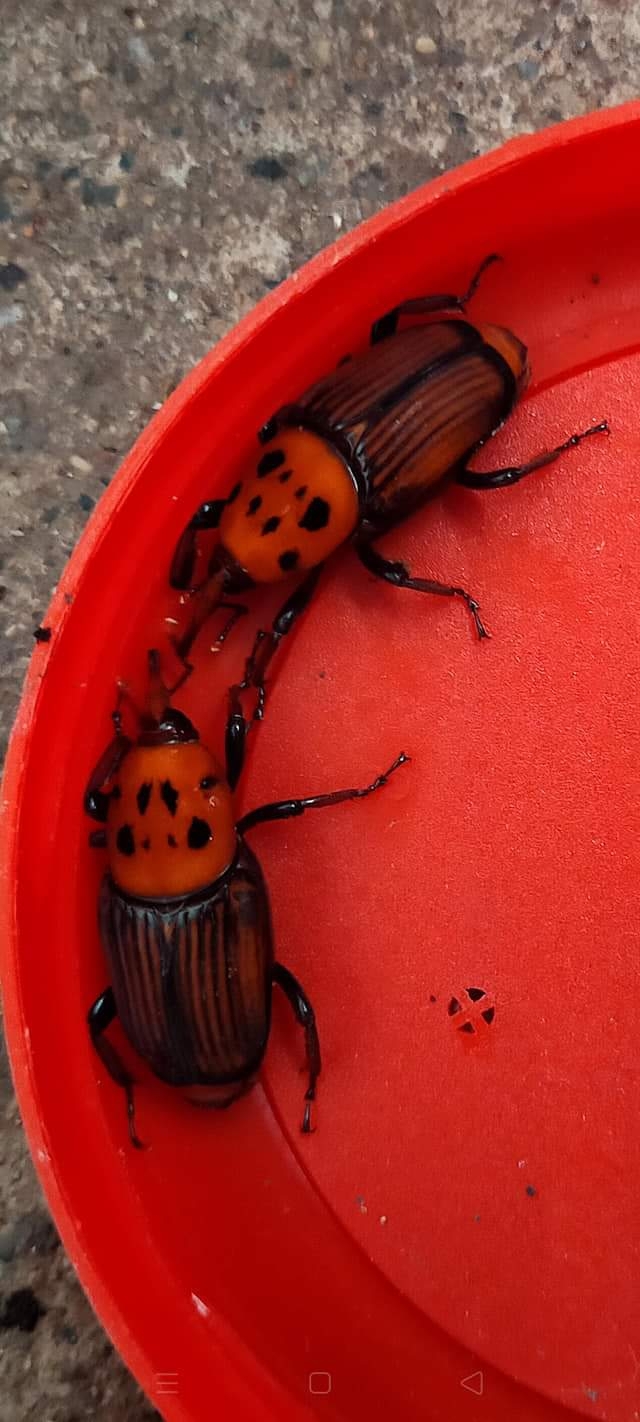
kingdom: Animalia
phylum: Arthropoda
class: Insecta
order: Coleoptera
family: Dryophthoridae
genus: Rhynchophorus
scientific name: Rhynchophorus ferrugineus
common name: Red palm weevil
